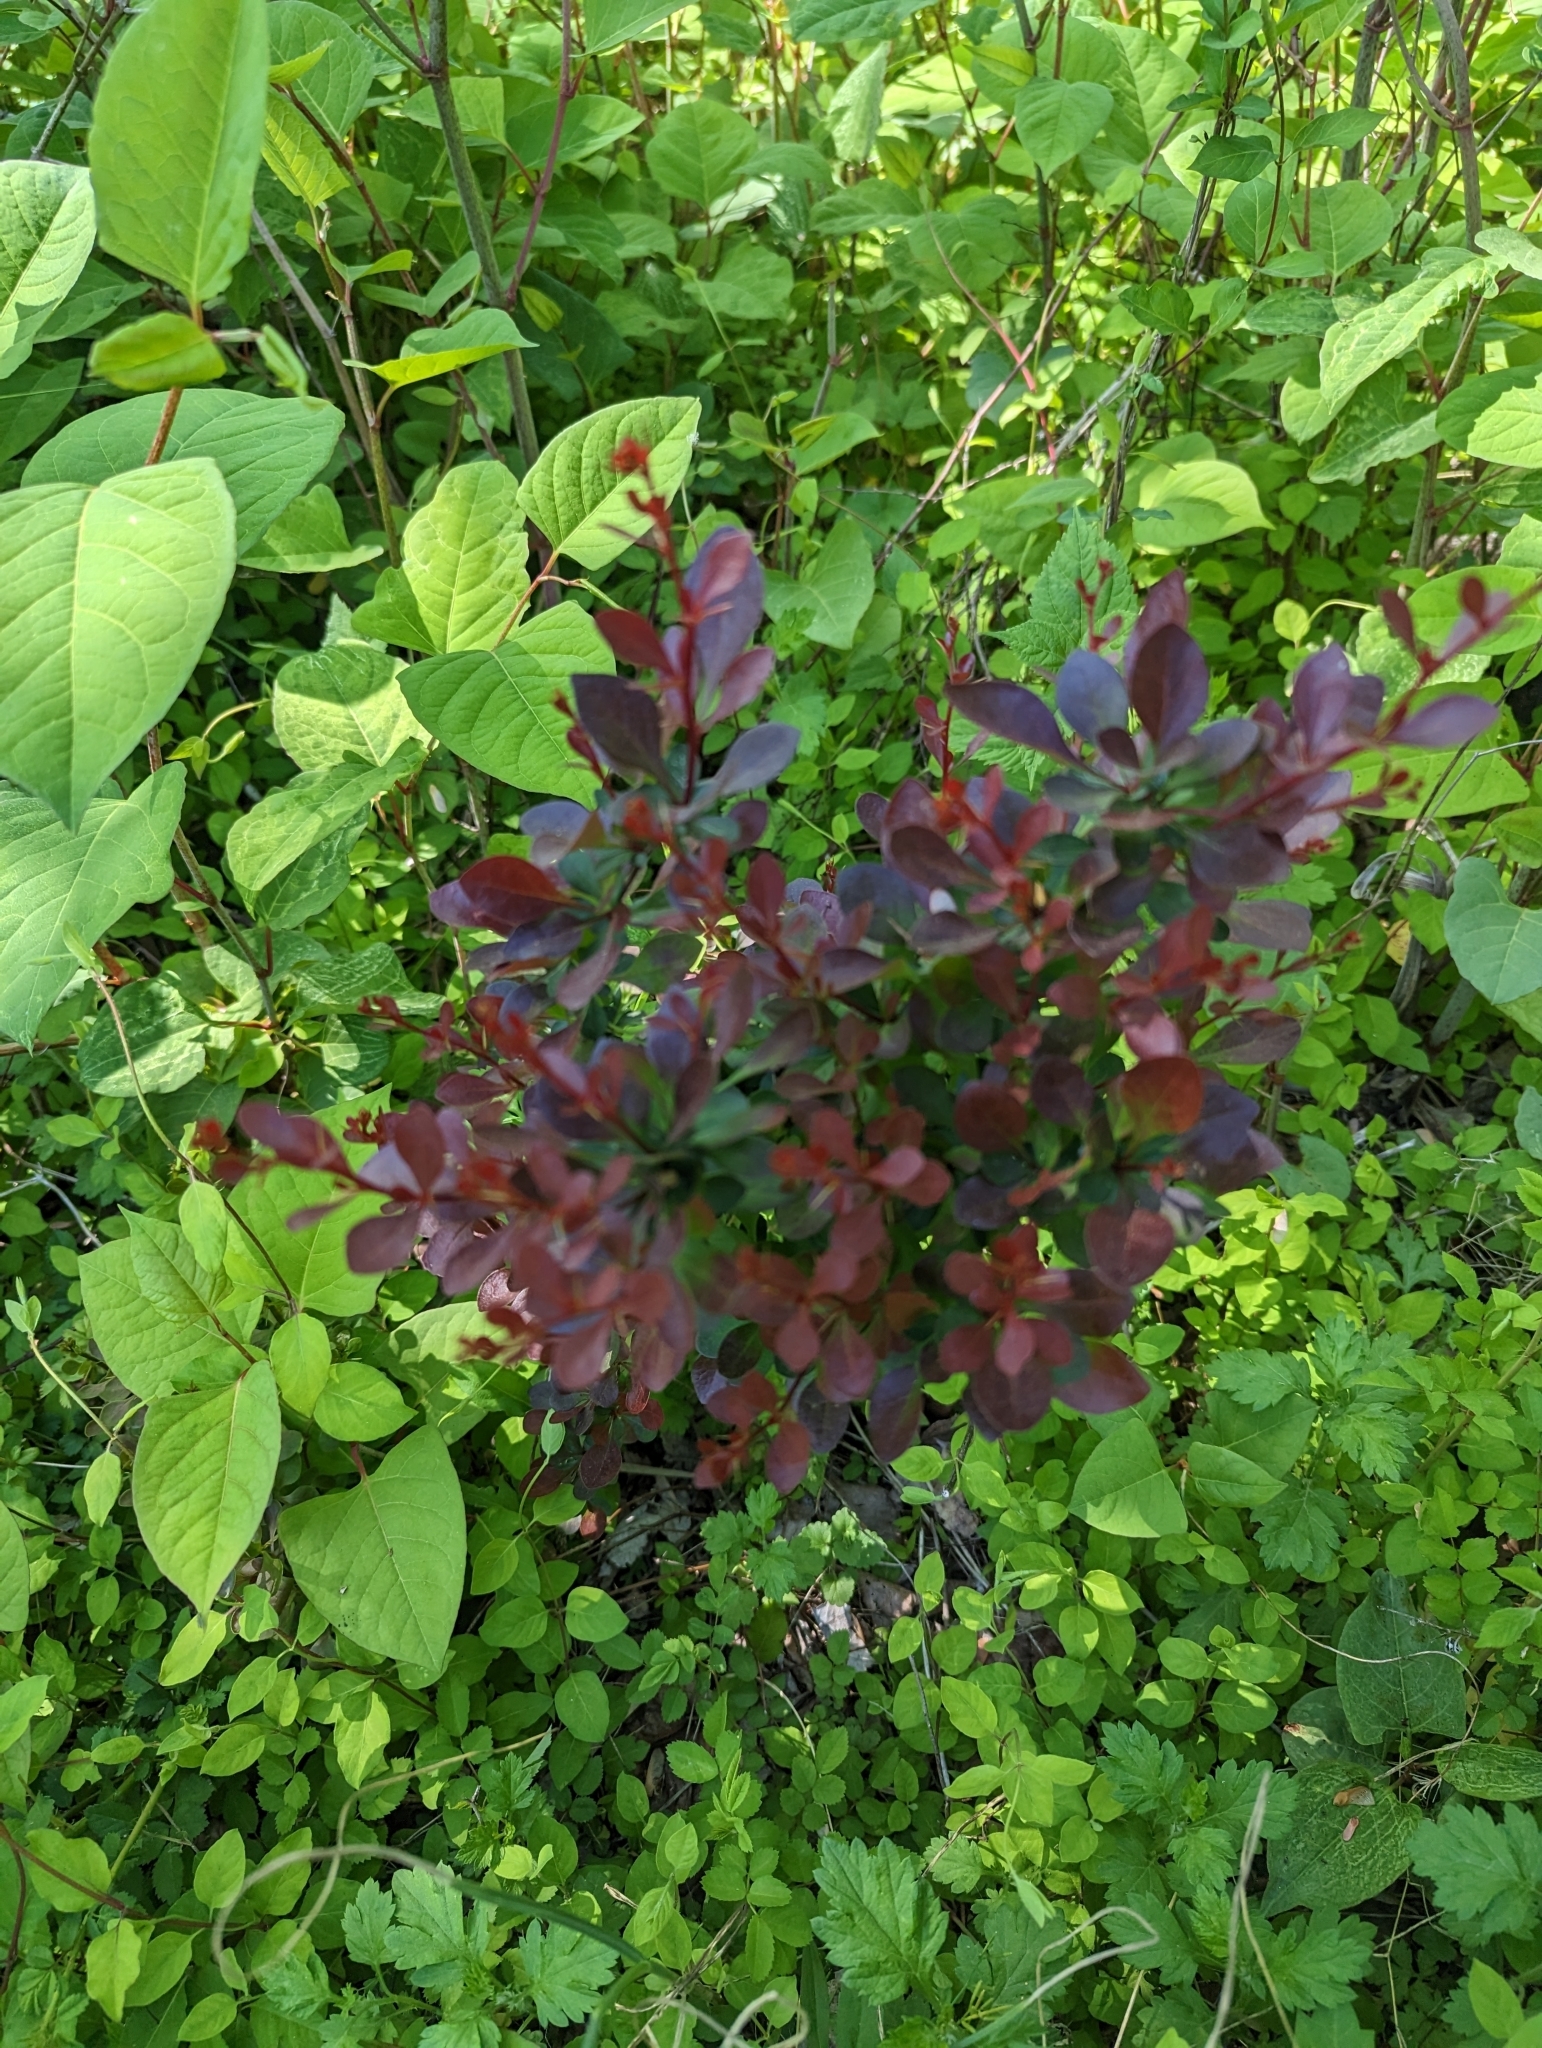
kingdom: Plantae
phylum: Tracheophyta
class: Magnoliopsida
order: Ranunculales
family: Berberidaceae
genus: Berberis
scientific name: Berberis thunbergii
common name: Japanese barberry
